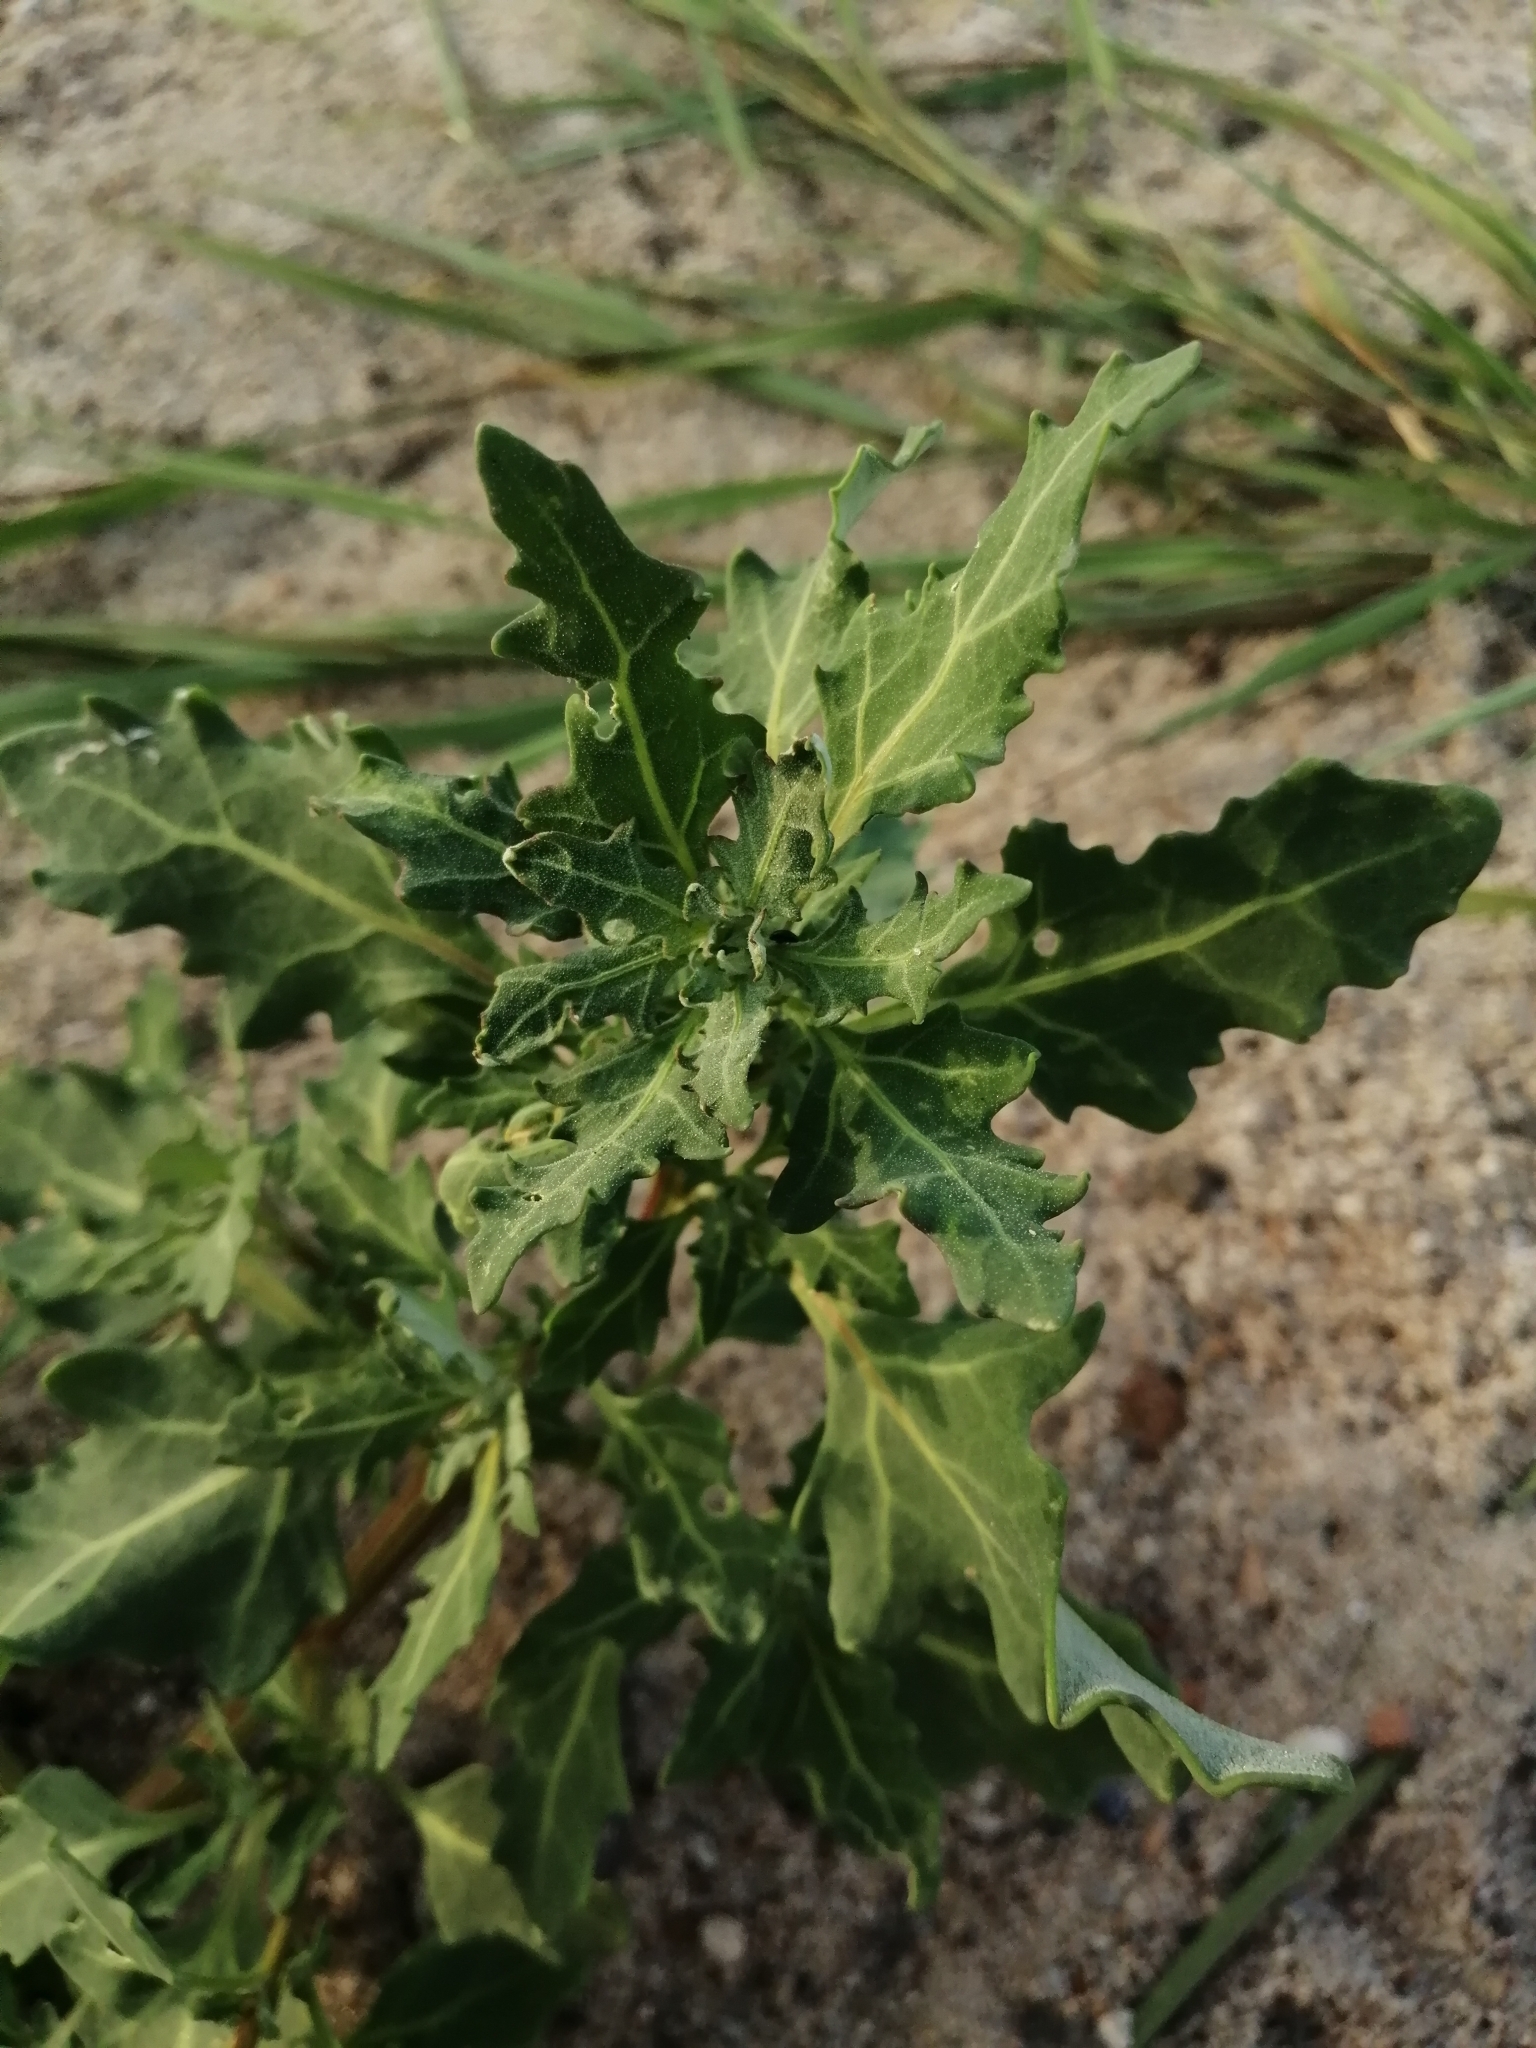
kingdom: Plantae
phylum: Tracheophyta
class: Magnoliopsida
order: Caryophyllales
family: Amaranthaceae
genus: Oxybasis
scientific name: Oxybasis glauca
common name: Glaucous goosefoot
